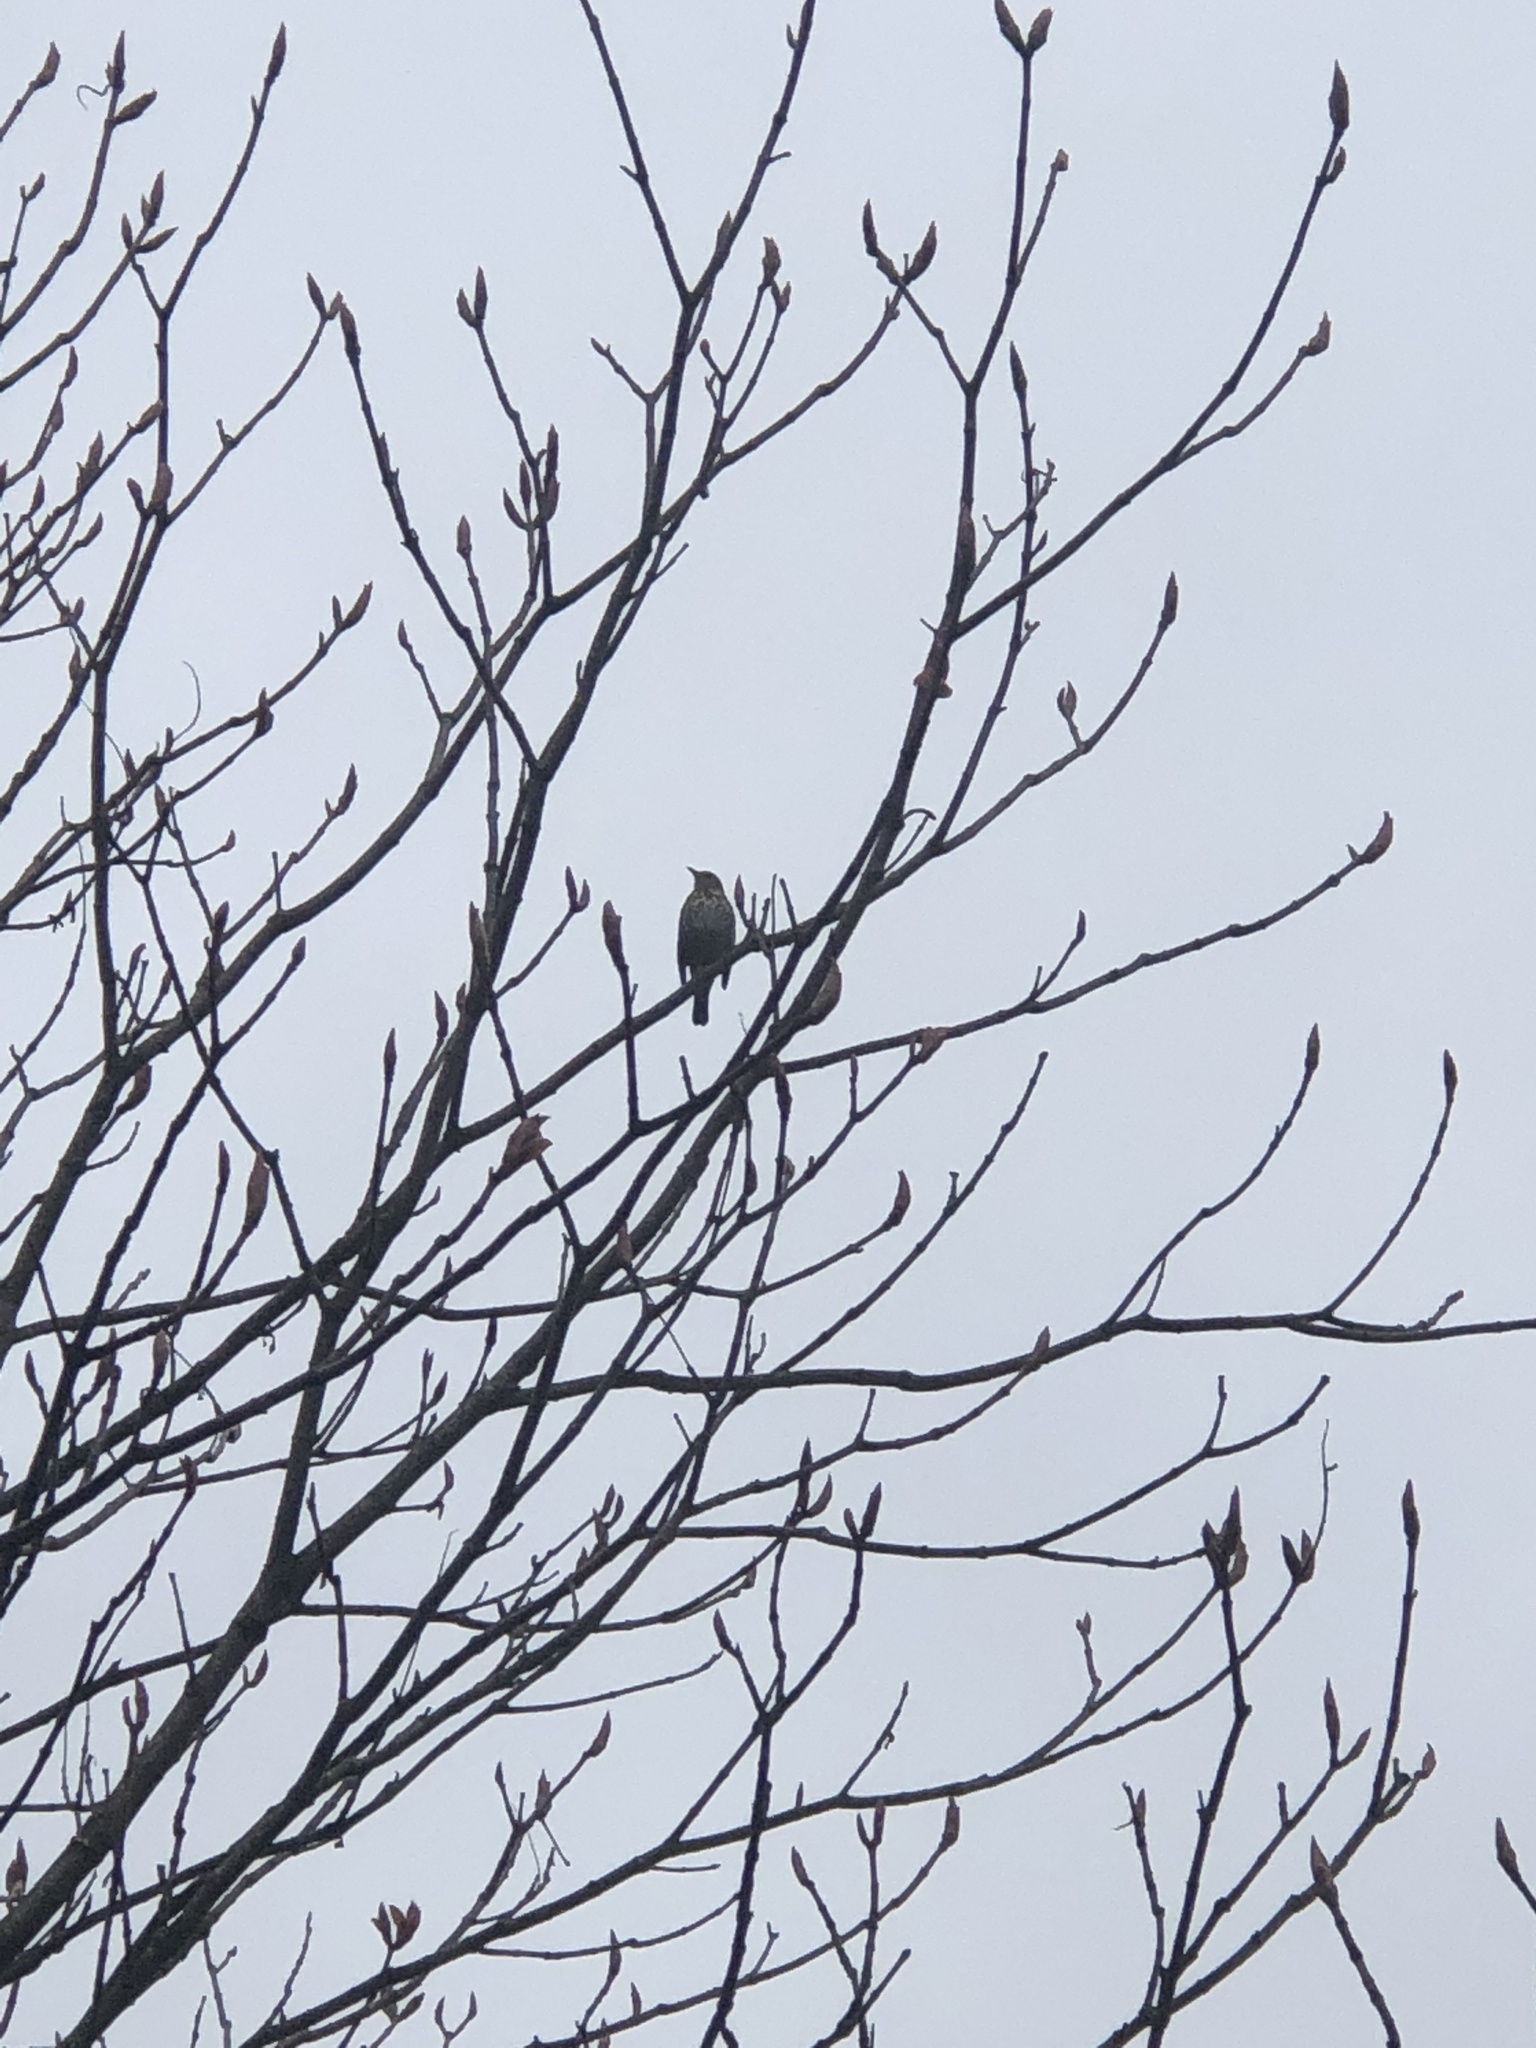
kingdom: Animalia
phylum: Chordata
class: Aves
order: Passeriformes
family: Turdidae
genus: Turdus
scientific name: Turdus philomelos
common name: Song thrush
